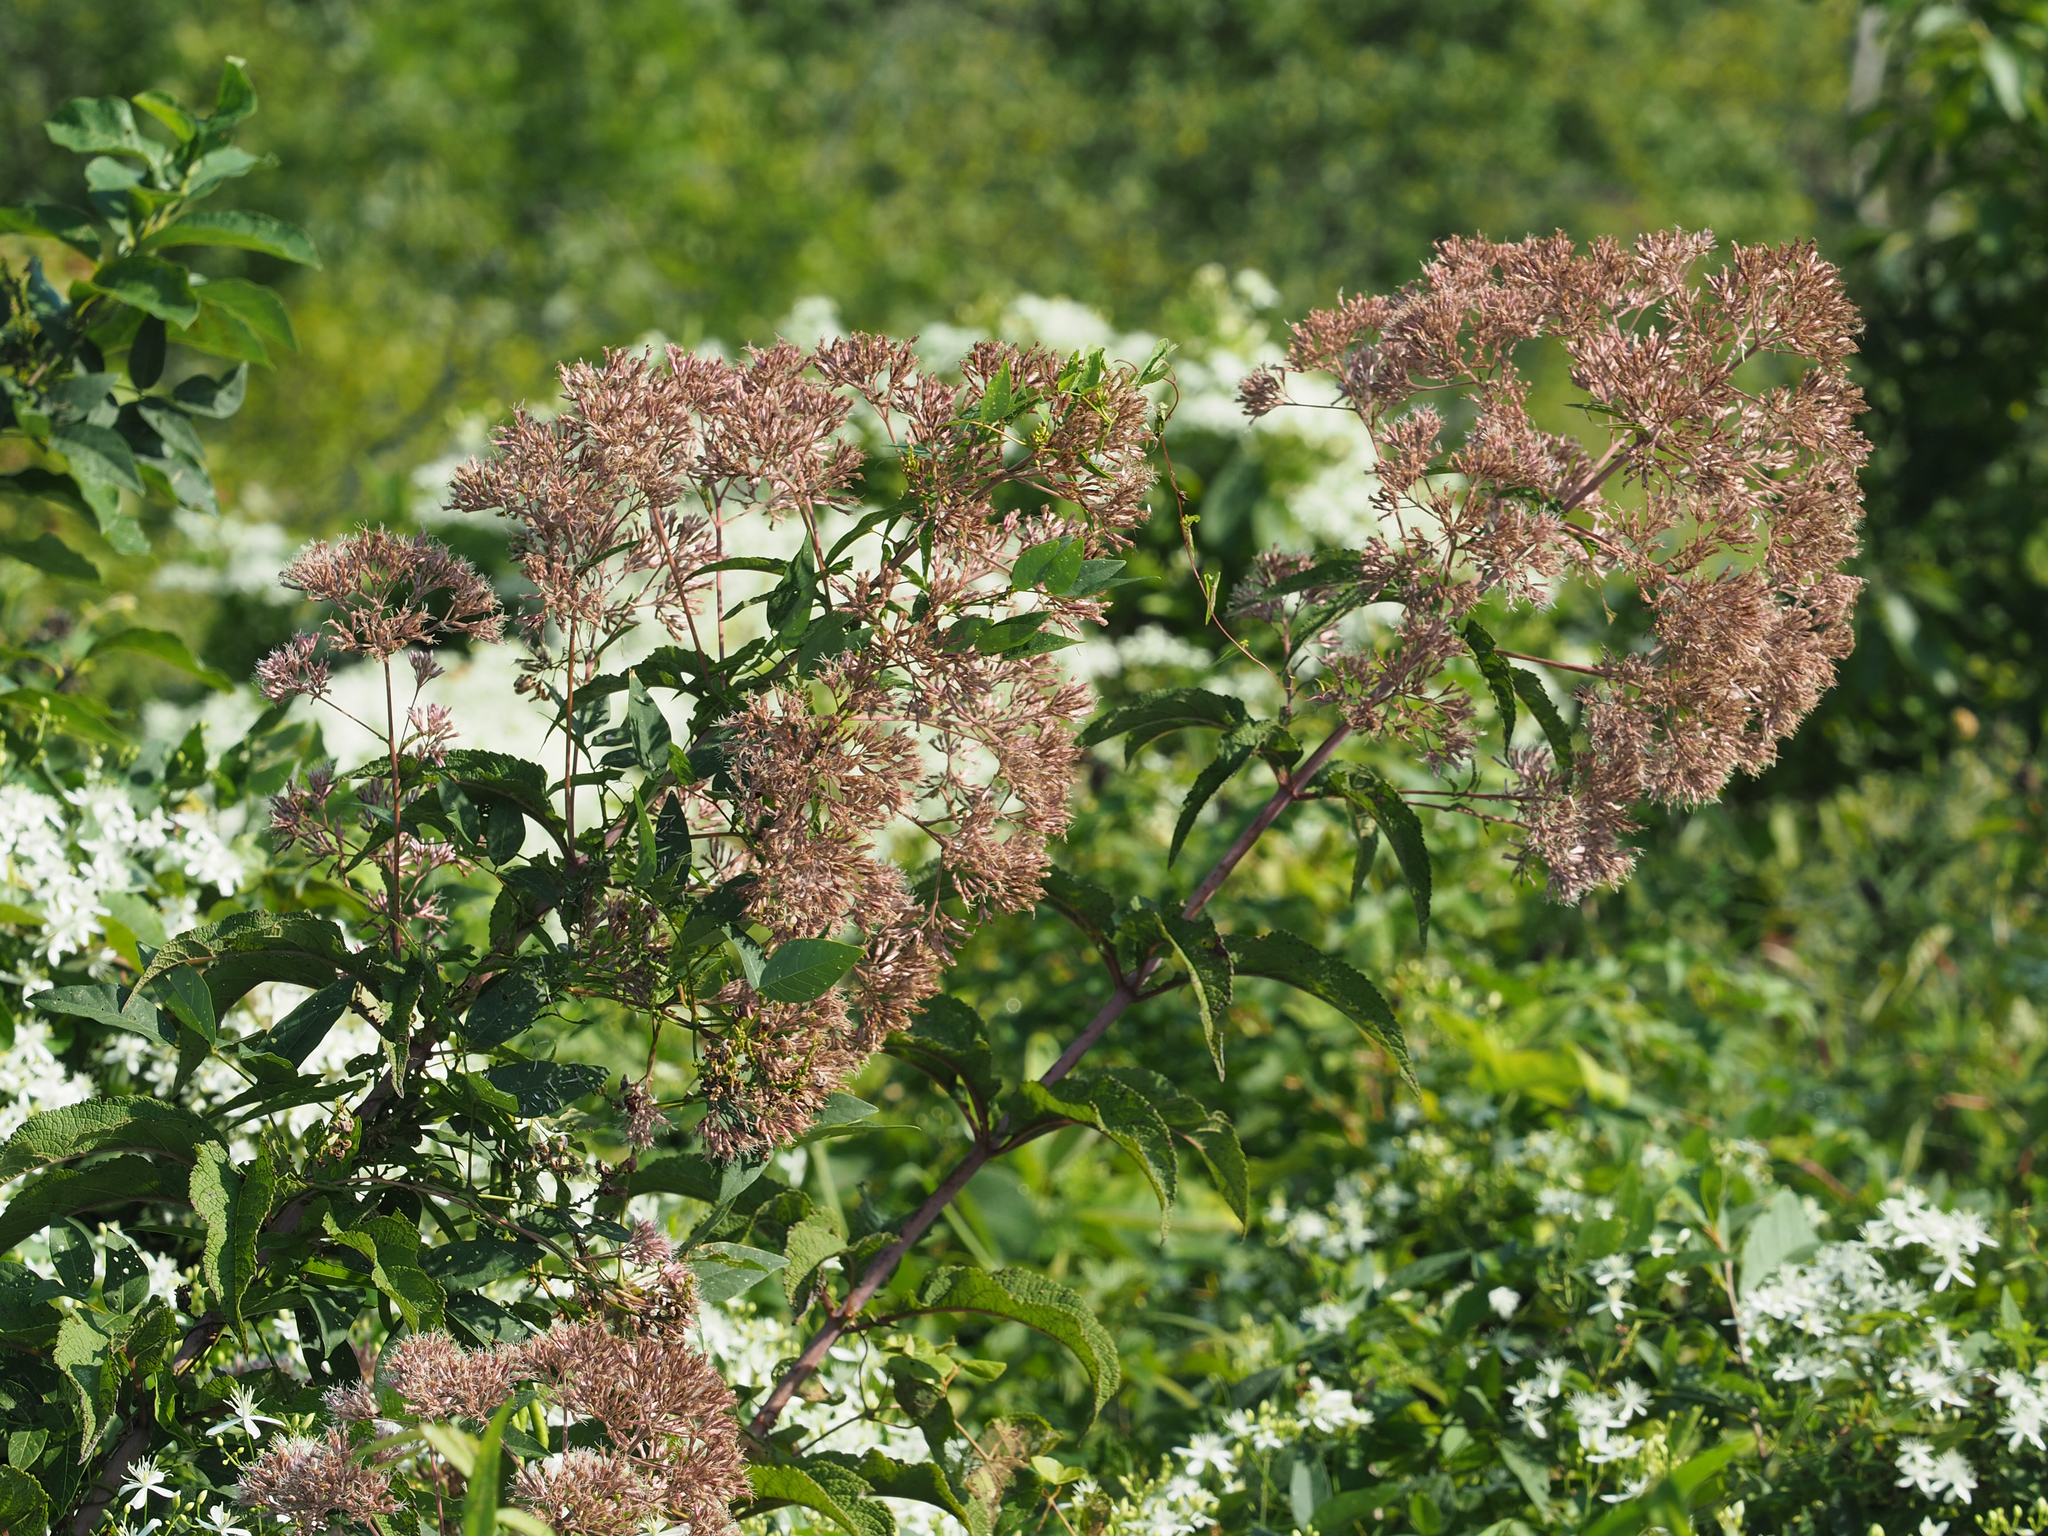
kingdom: Plantae
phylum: Tracheophyta
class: Magnoliopsida
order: Asterales
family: Asteraceae
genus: Eutrochium
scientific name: Eutrochium fistulosum
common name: Trumpetweed
